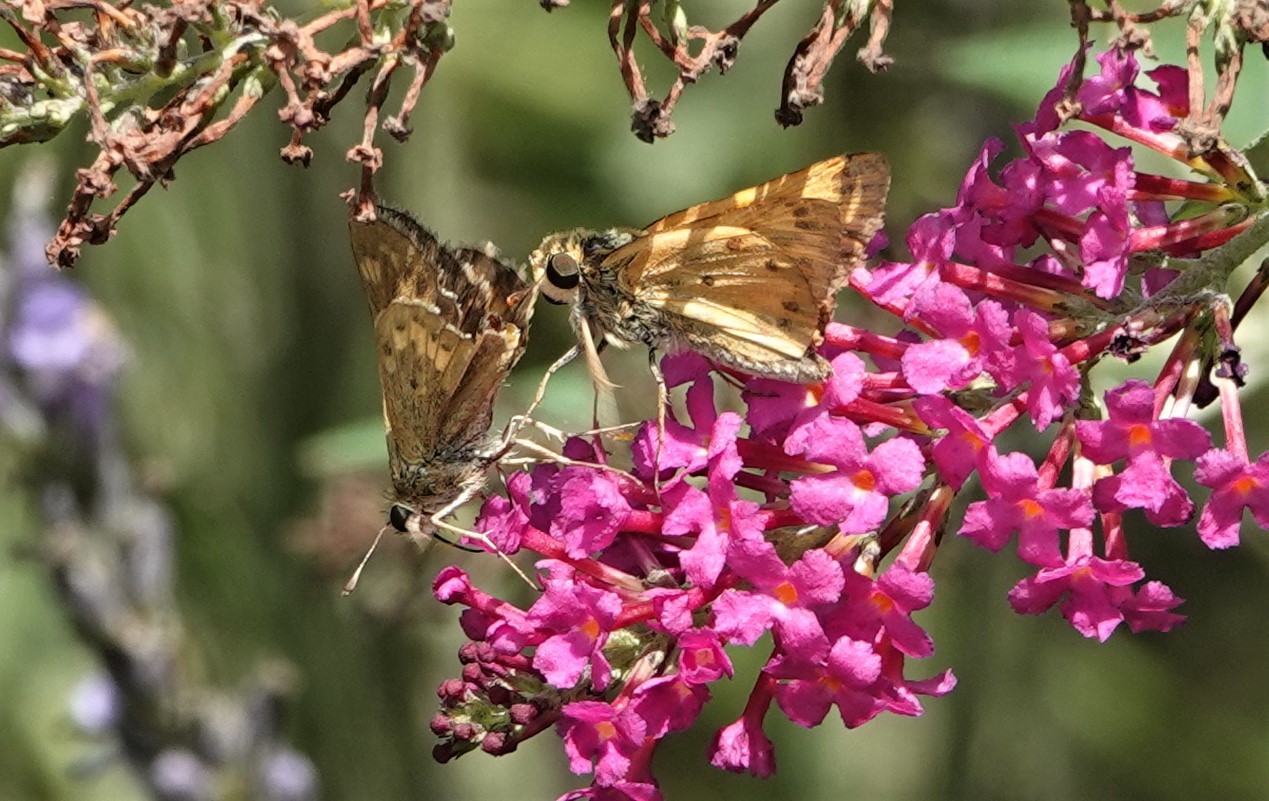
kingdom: Animalia
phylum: Arthropoda
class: Insecta
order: Lepidoptera
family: Hesperiidae
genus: Hylephila
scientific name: Hylephila phyleus
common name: Fiery skipper
